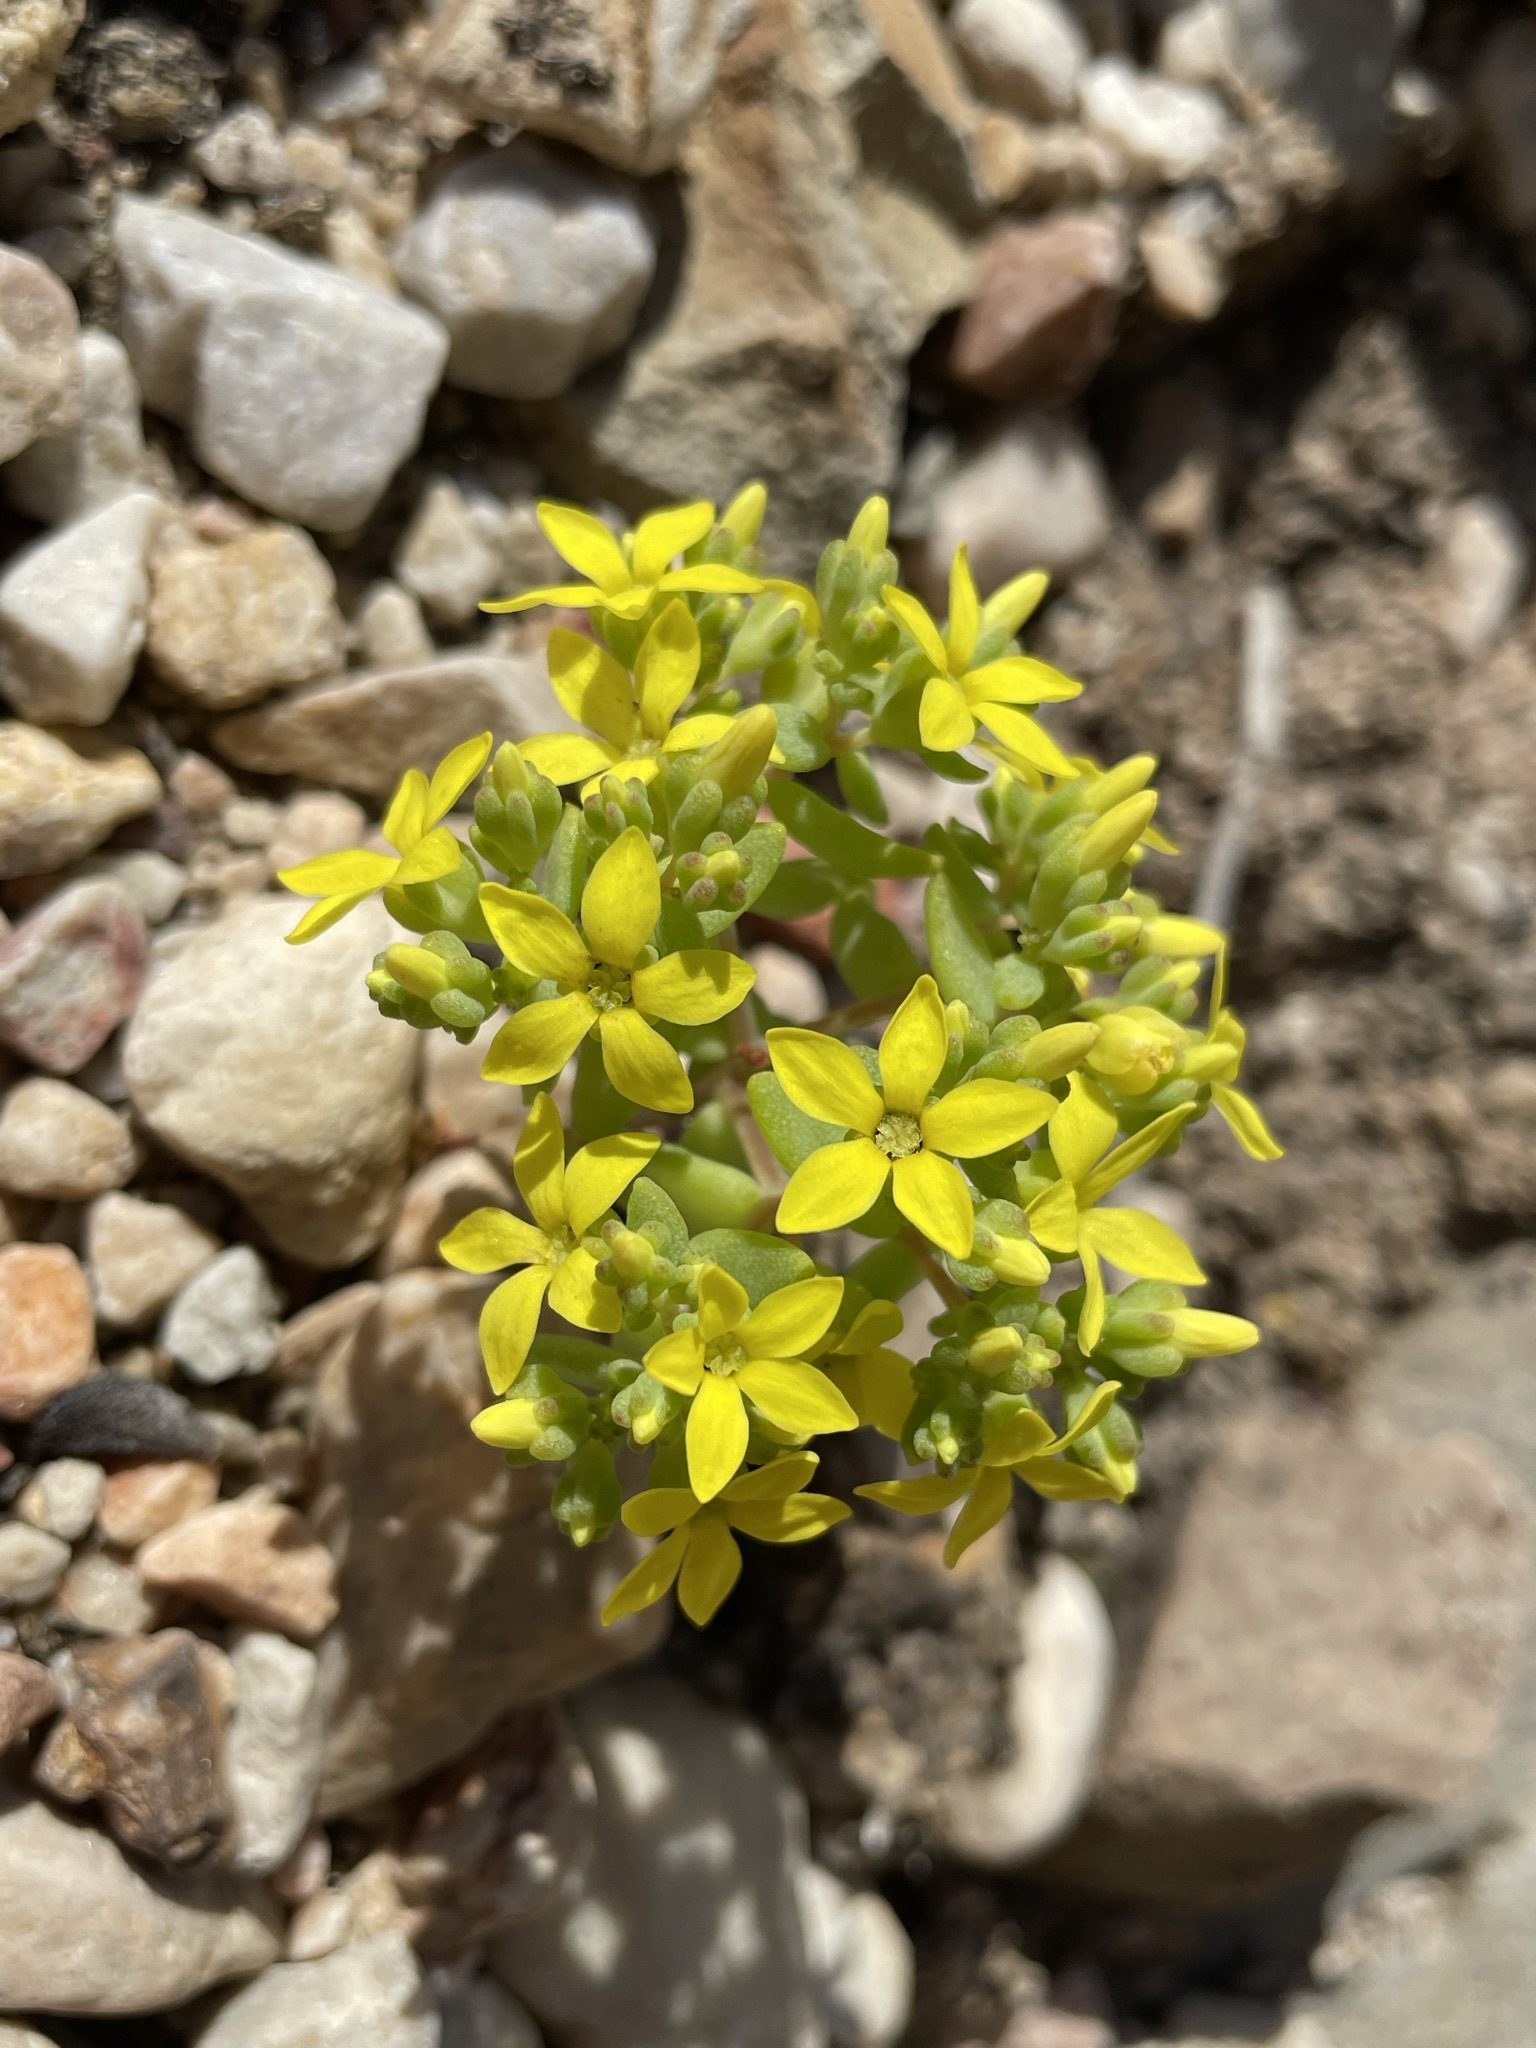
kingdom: Plantae
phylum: Tracheophyta
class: Magnoliopsida
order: Saxifragales
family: Crassulaceae
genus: Crassula
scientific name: Crassula sebaeoides
